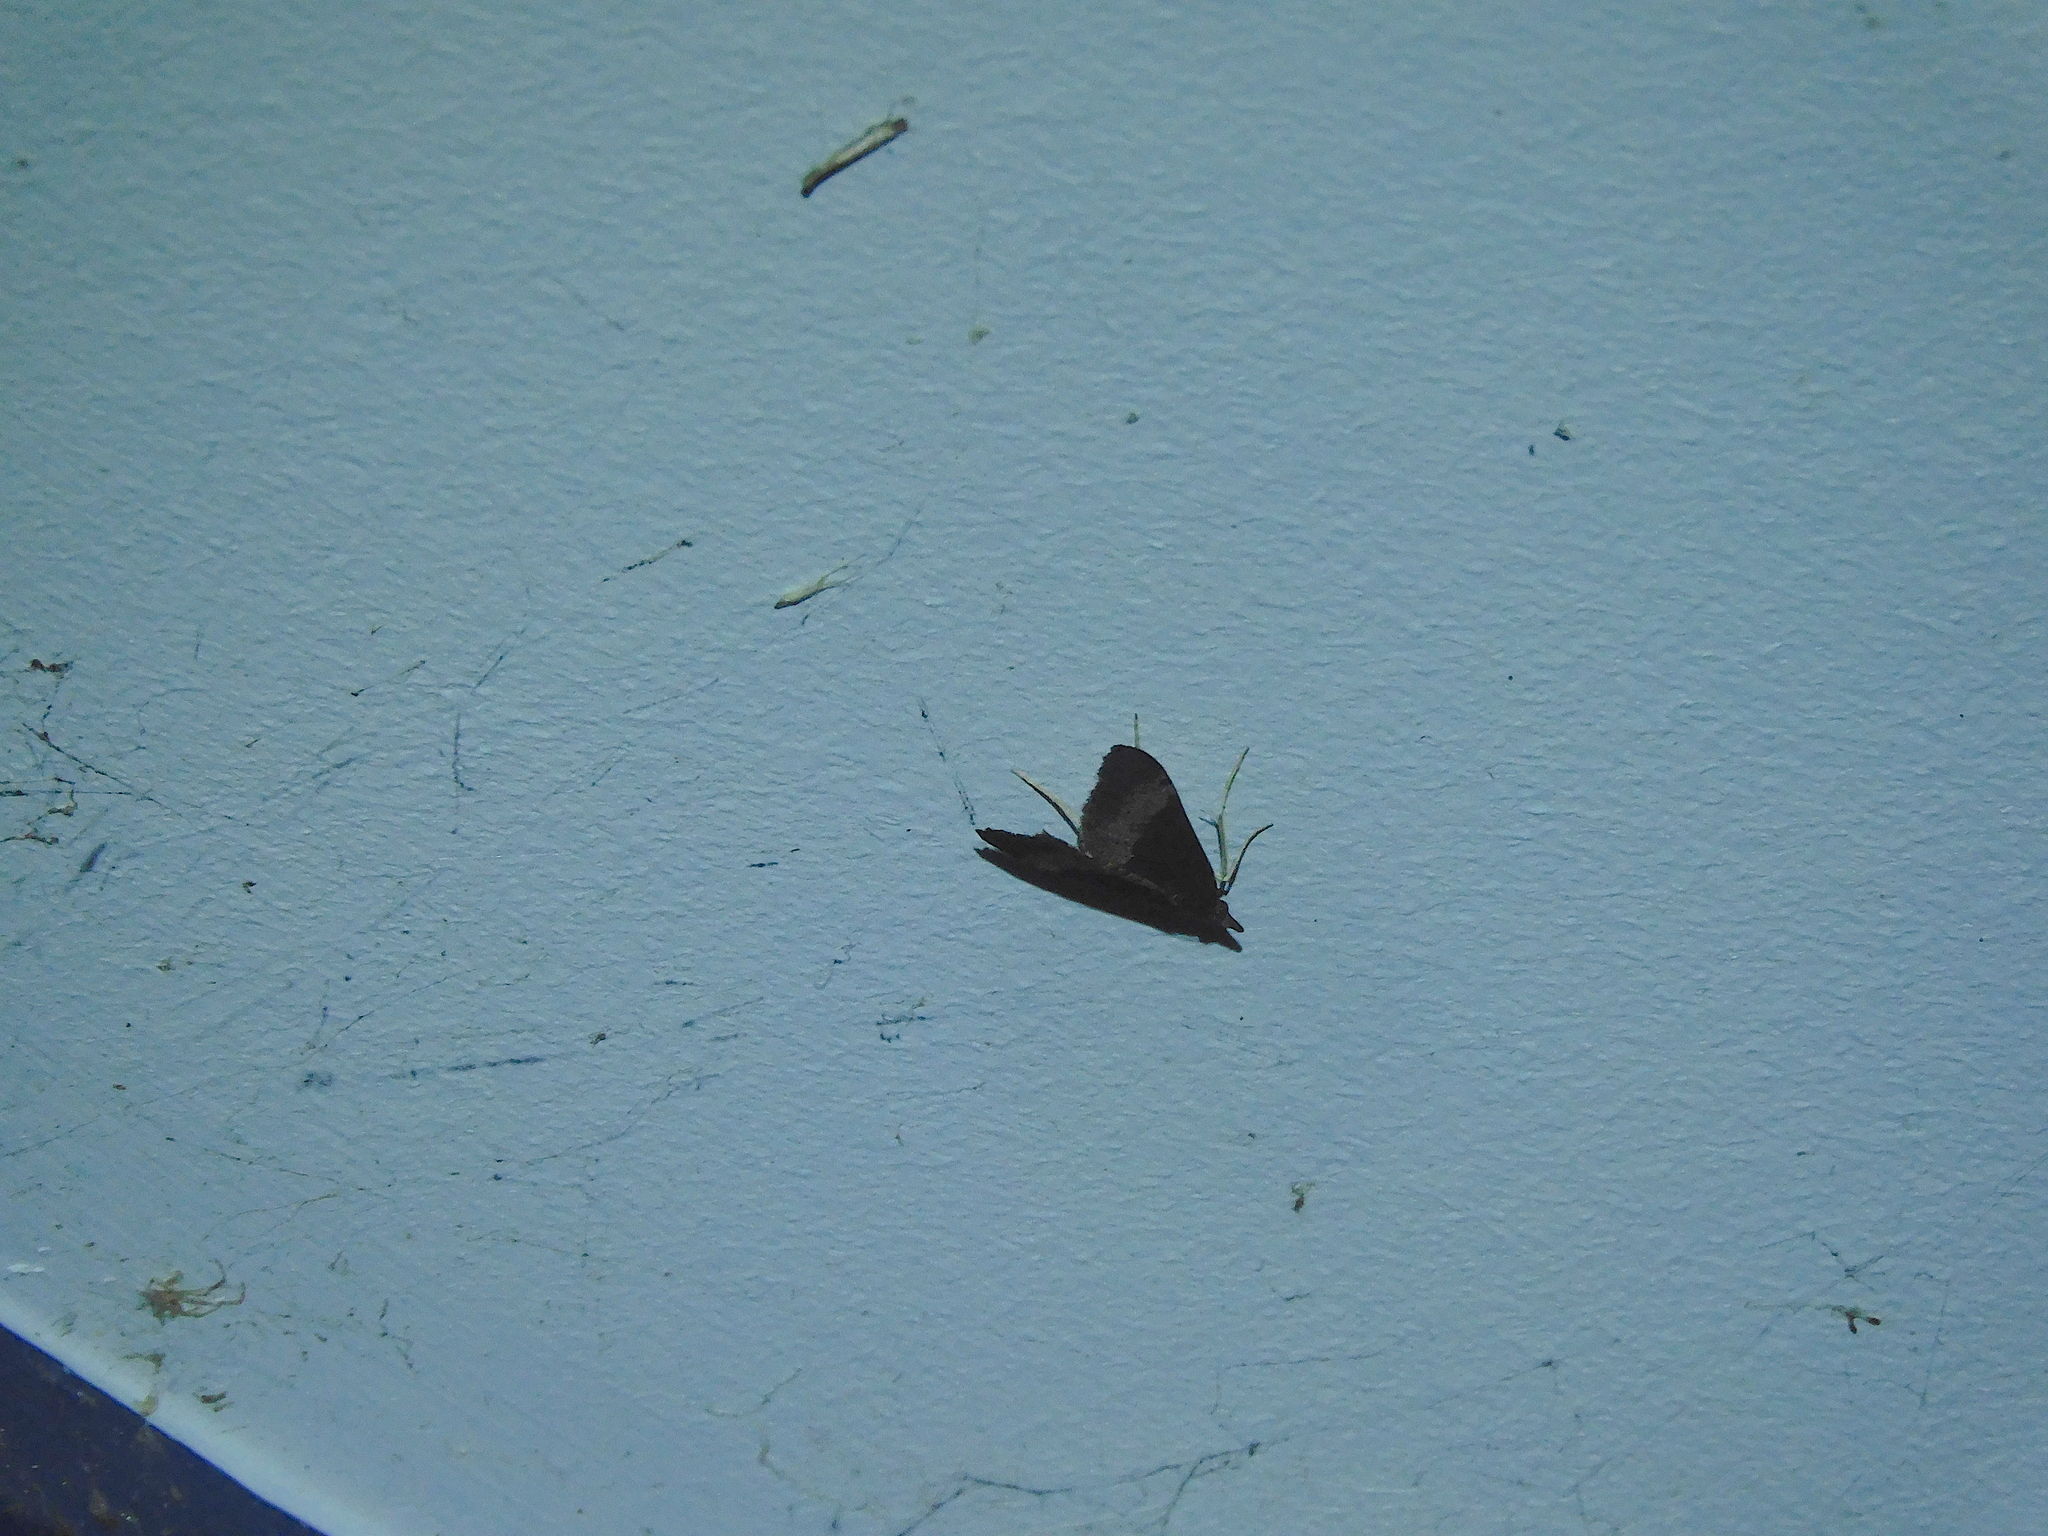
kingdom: Animalia
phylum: Arthropoda
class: Insecta
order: Lepidoptera
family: Crambidae
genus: Uresiphita
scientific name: Uresiphita ornithopteralis
